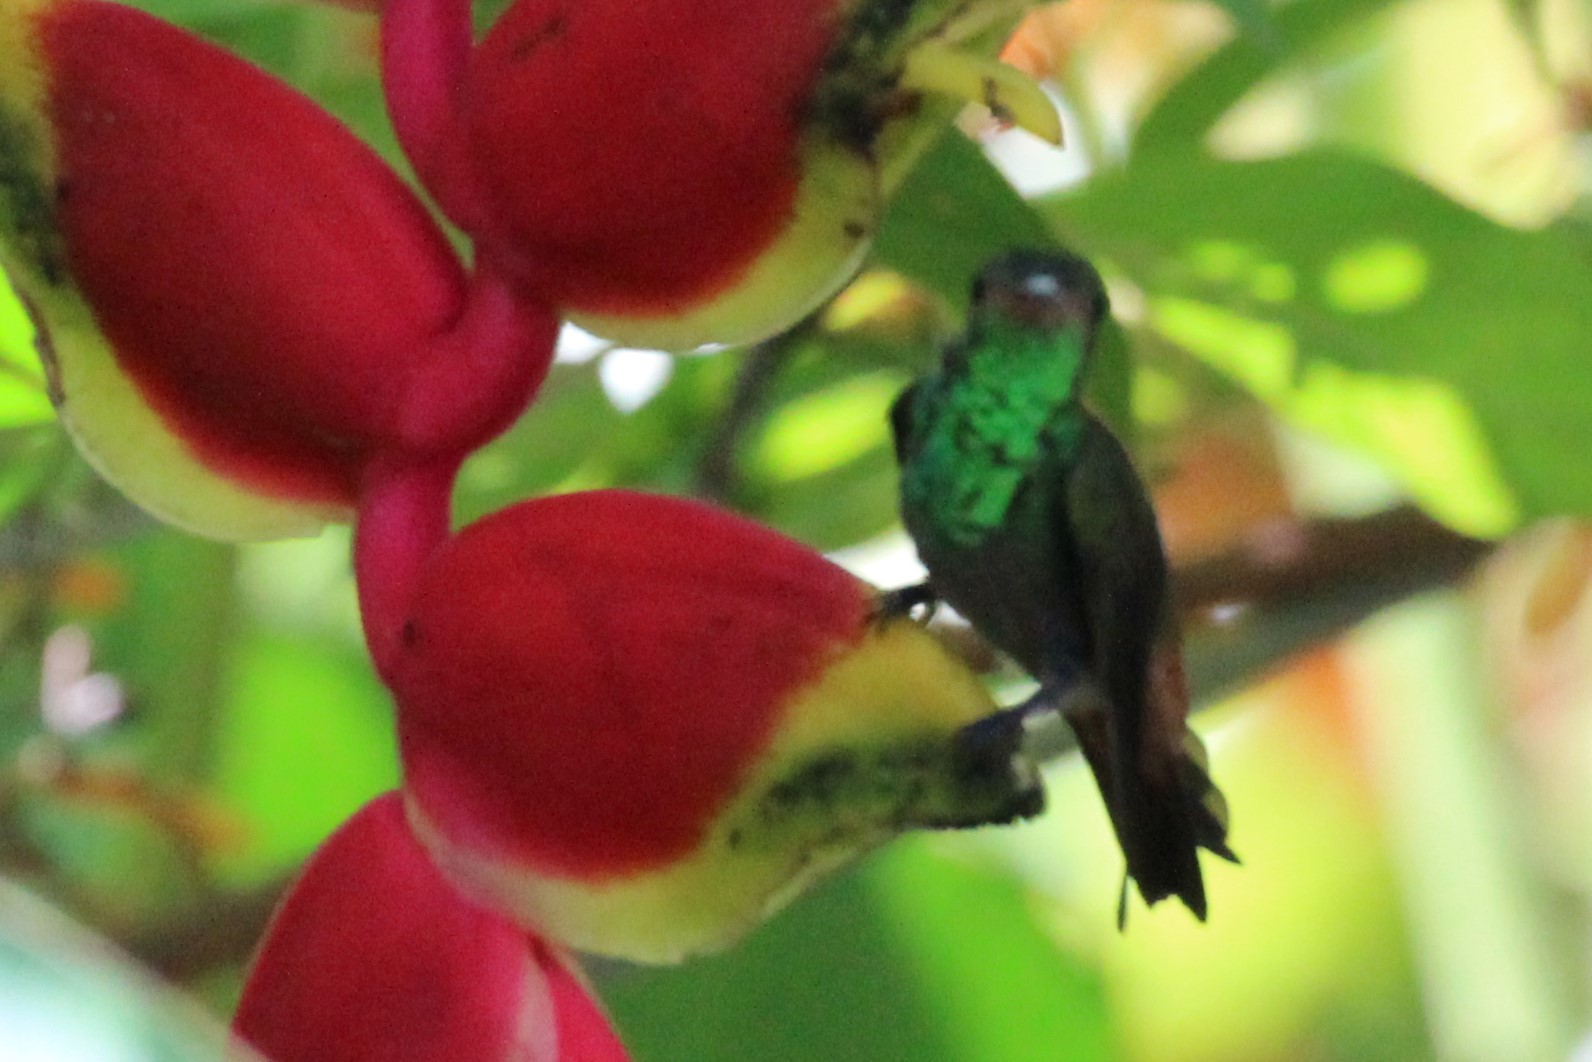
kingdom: Animalia
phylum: Chordata
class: Aves
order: Apodiformes
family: Trochilidae
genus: Amazilia
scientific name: Amazilia tzacatl
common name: Rufous-tailed hummingbird
